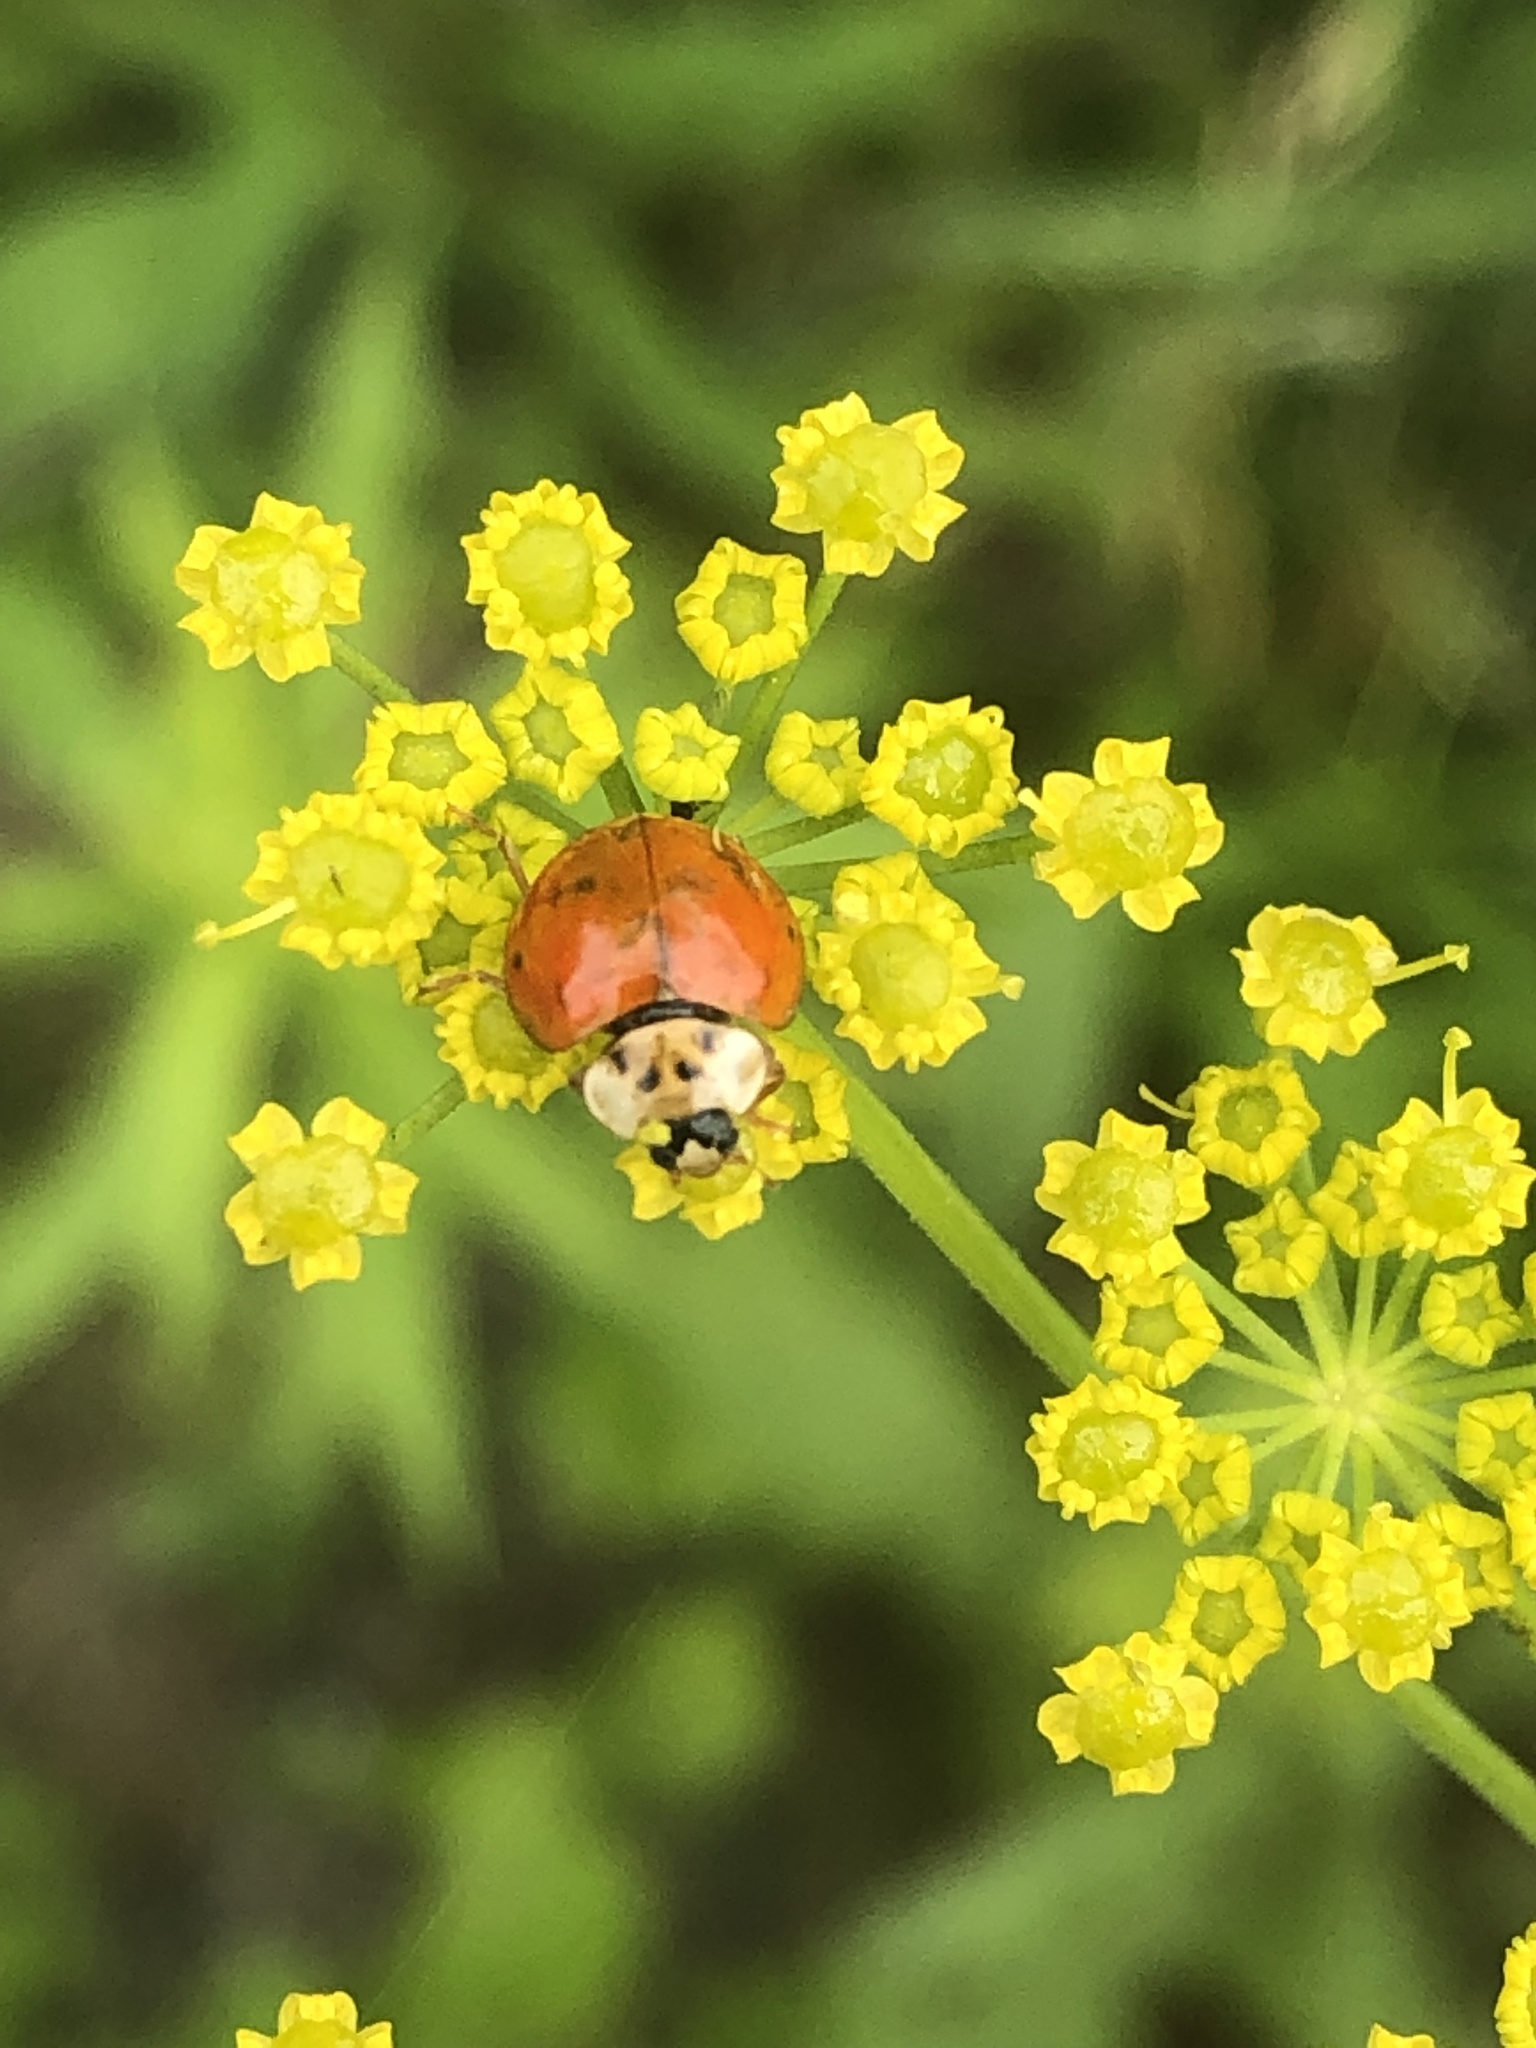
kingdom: Animalia
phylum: Arthropoda
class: Insecta
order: Coleoptera
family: Coccinellidae
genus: Harmonia
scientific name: Harmonia axyridis
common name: Harlequin ladybird
